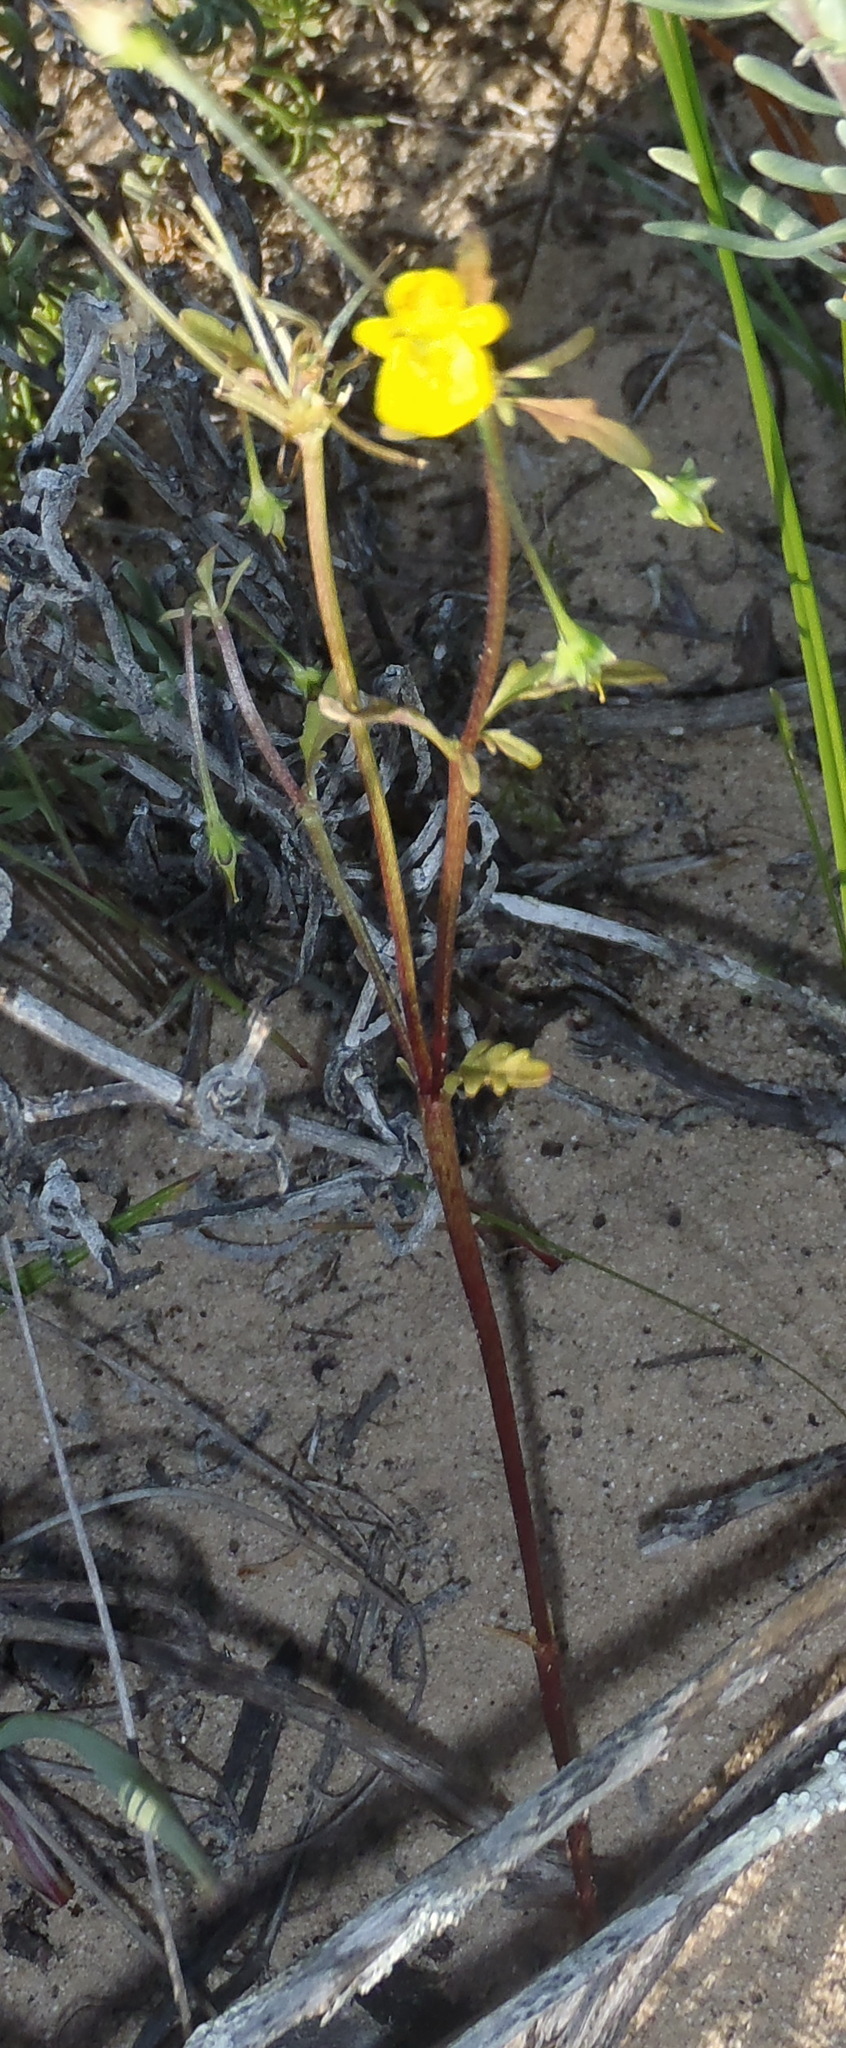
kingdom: Plantae
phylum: Tracheophyta
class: Magnoliopsida
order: Lamiales
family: Scrophulariaceae
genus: Hemimeris
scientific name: Hemimeris sabulosa
